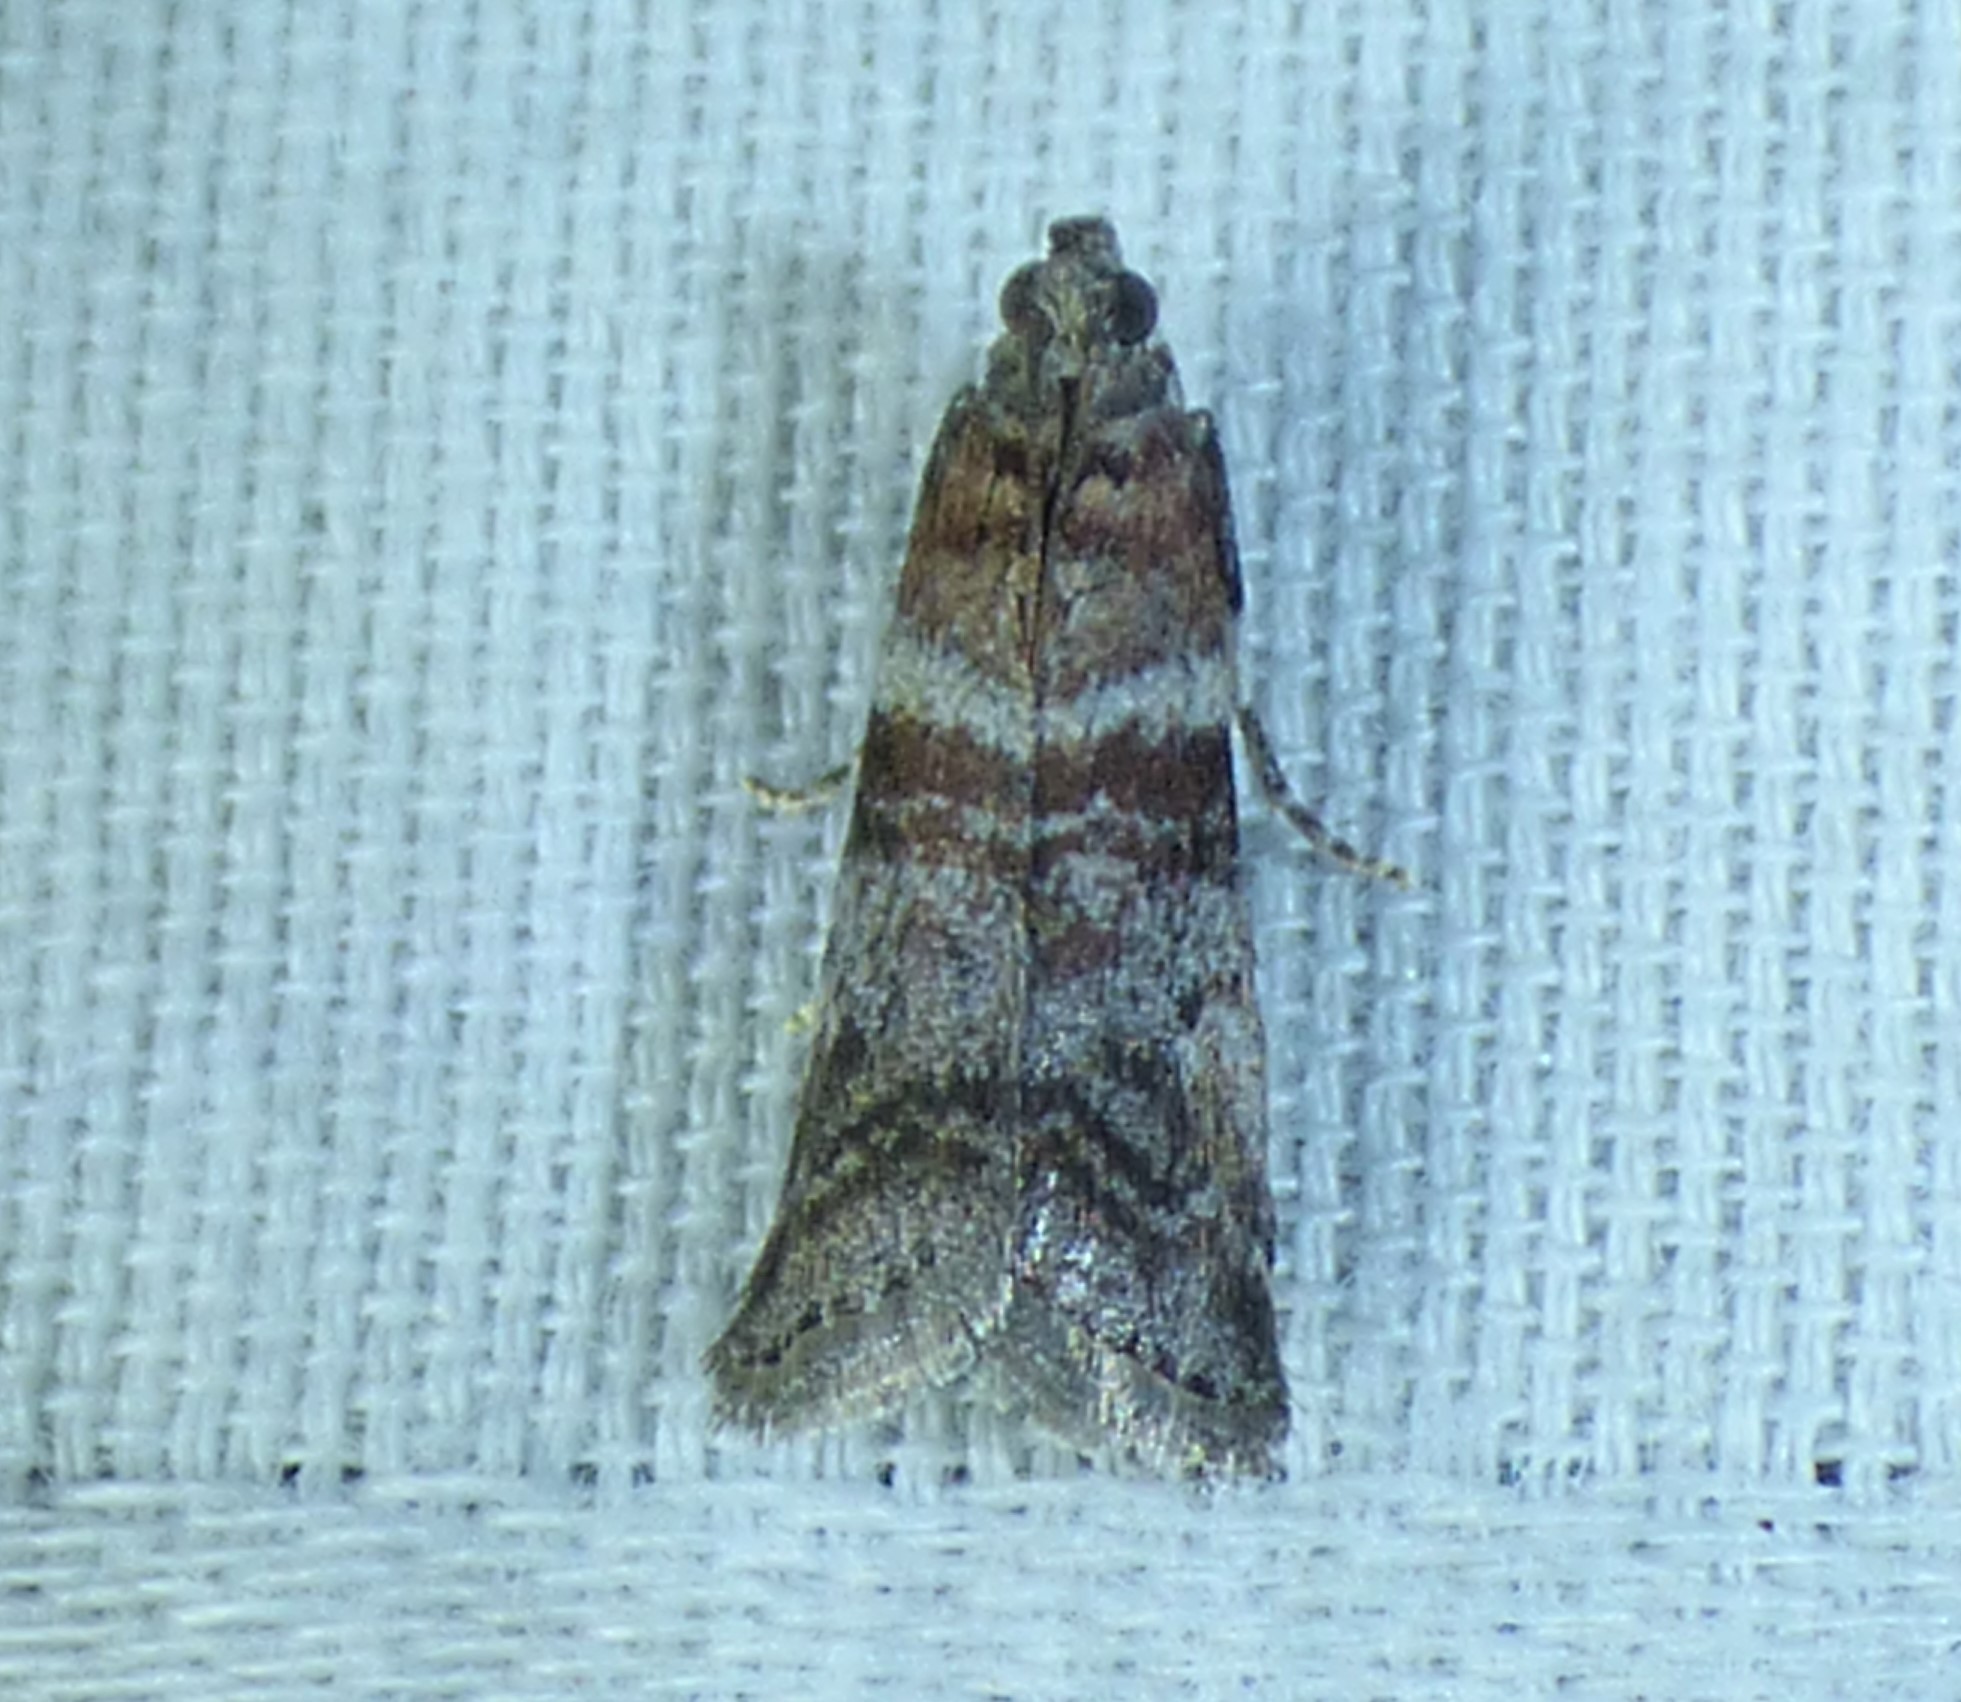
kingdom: Animalia
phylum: Arthropoda
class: Insecta
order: Lepidoptera
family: Pyralidae
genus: Sciota
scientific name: Sciota uvinella
